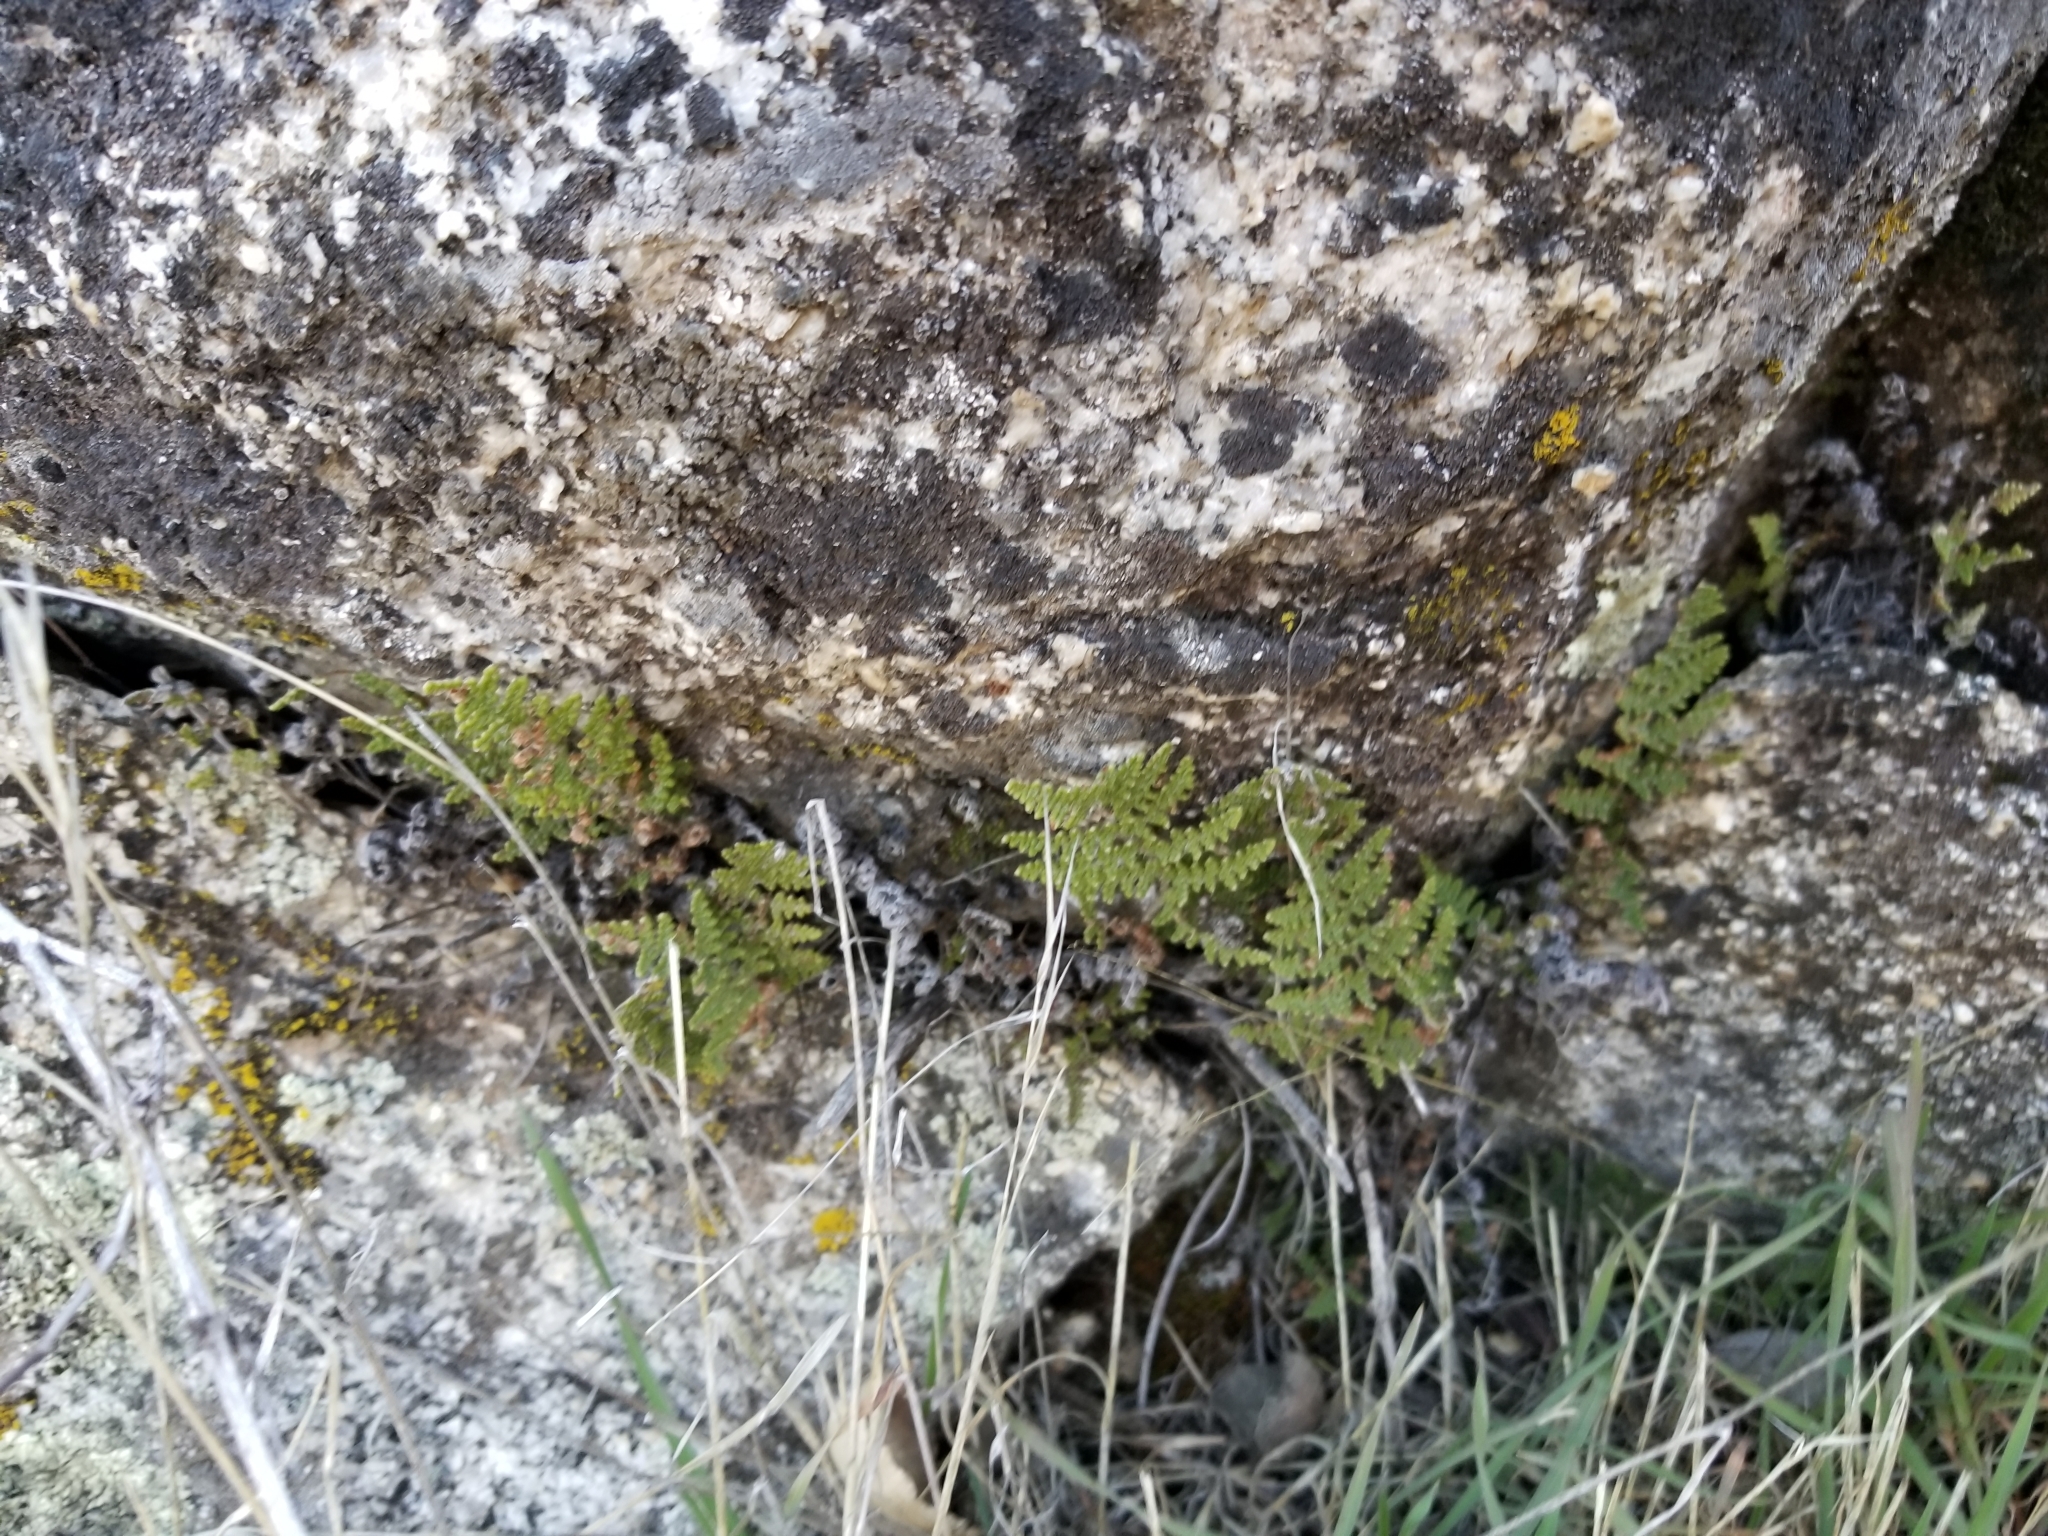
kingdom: Plantae
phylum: Tracheophyta
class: Polypodiopsida
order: Polypodiales
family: Pteridaceae
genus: Myriopteris
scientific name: Myriopteris covillei
